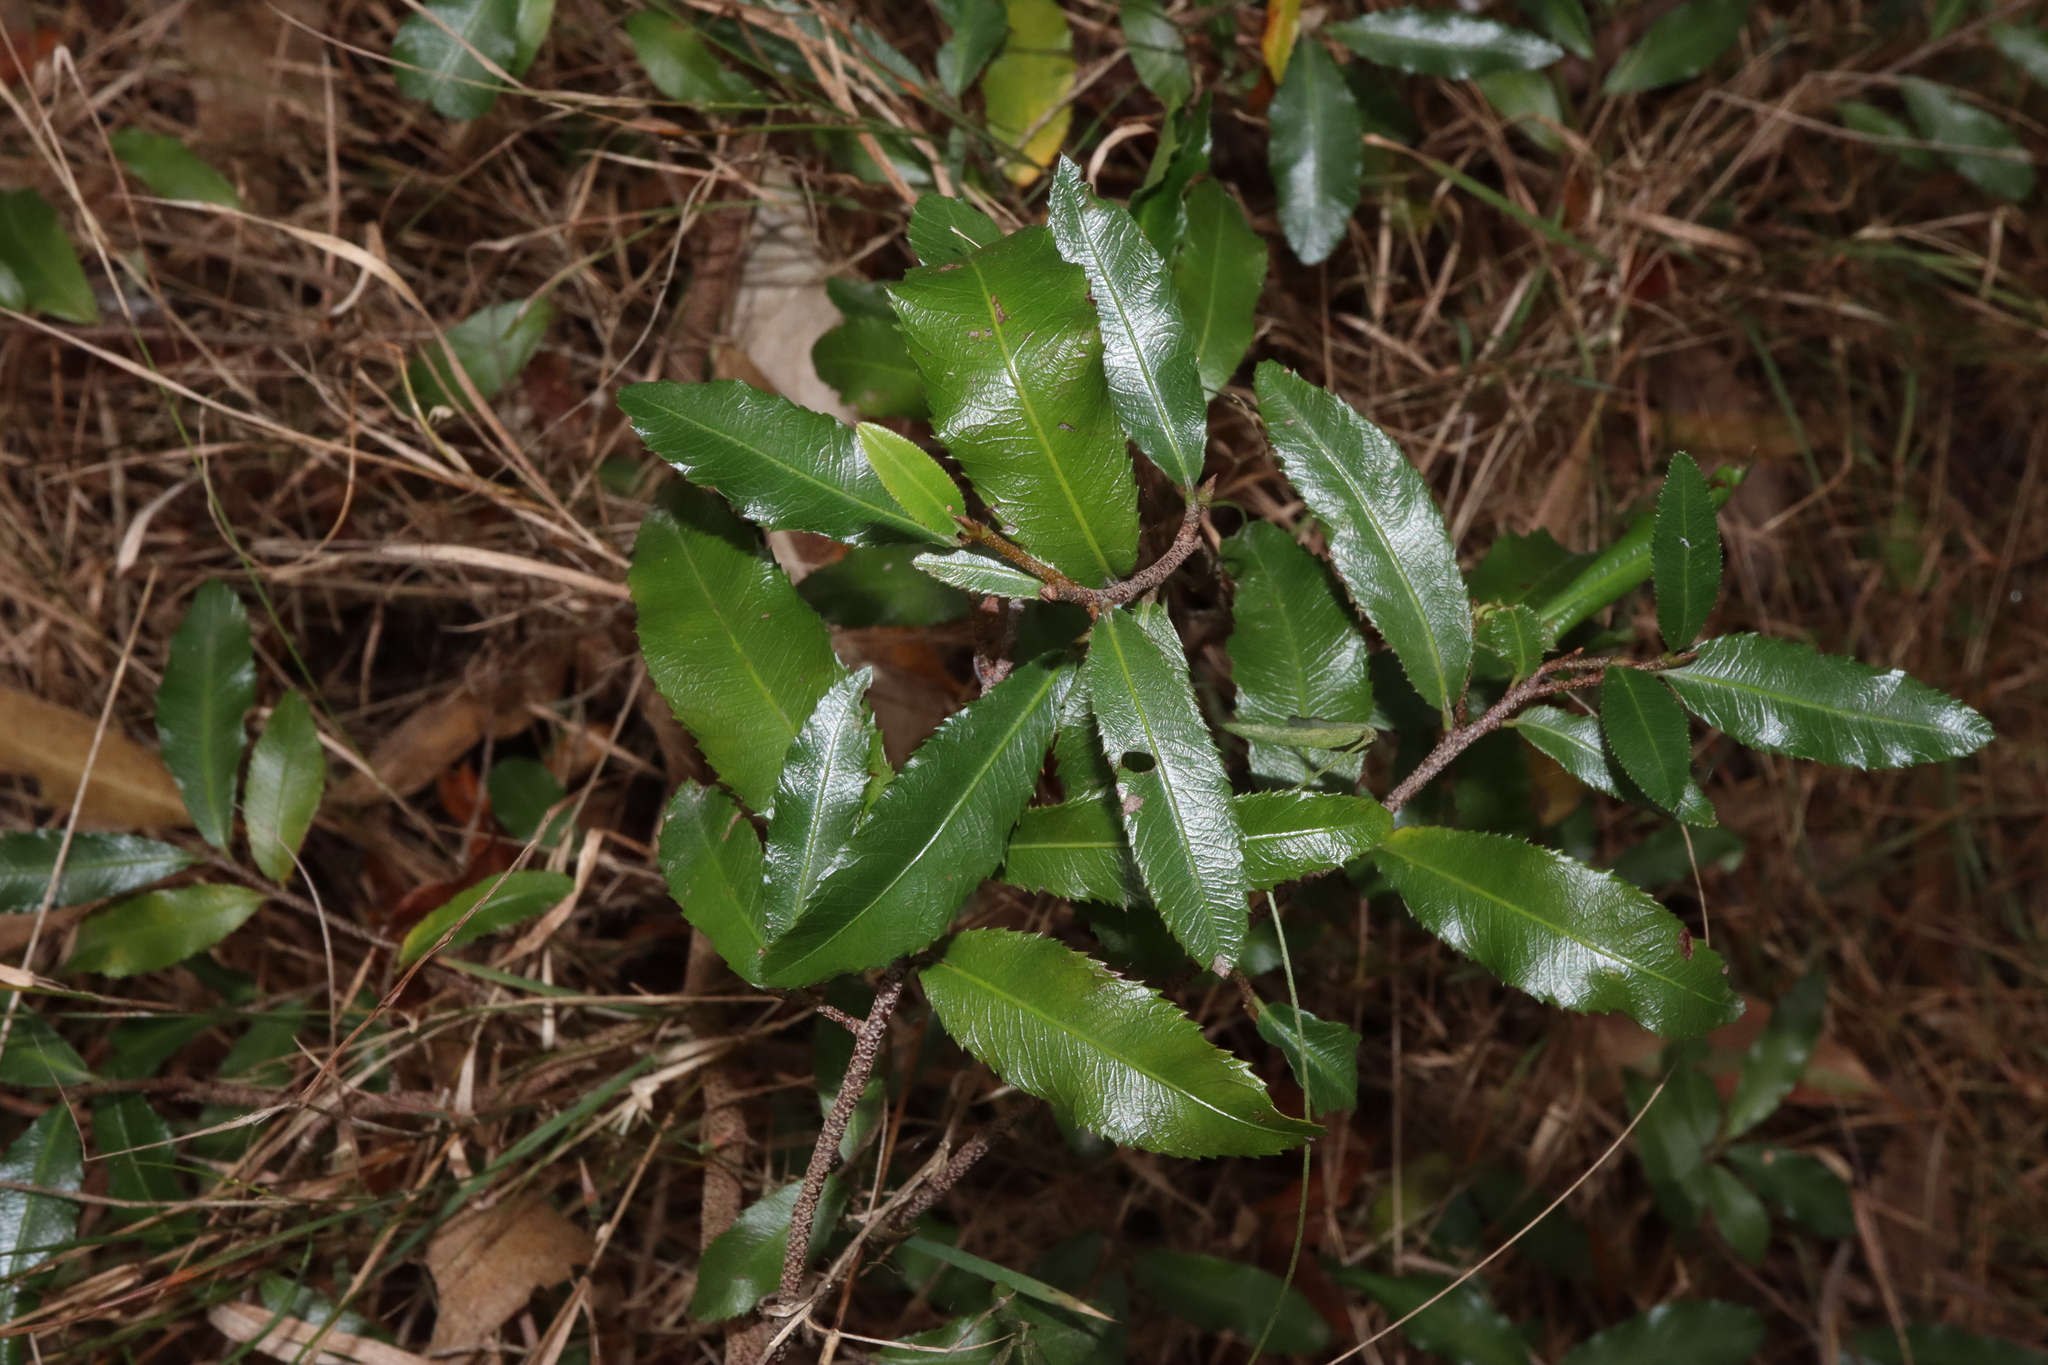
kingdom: Plantae
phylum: Tracheophyta
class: Magnoliopsida
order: Malpighiales
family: Ochnaceae
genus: Ochna
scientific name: Ochna serrulata
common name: Mickey mouse plant
